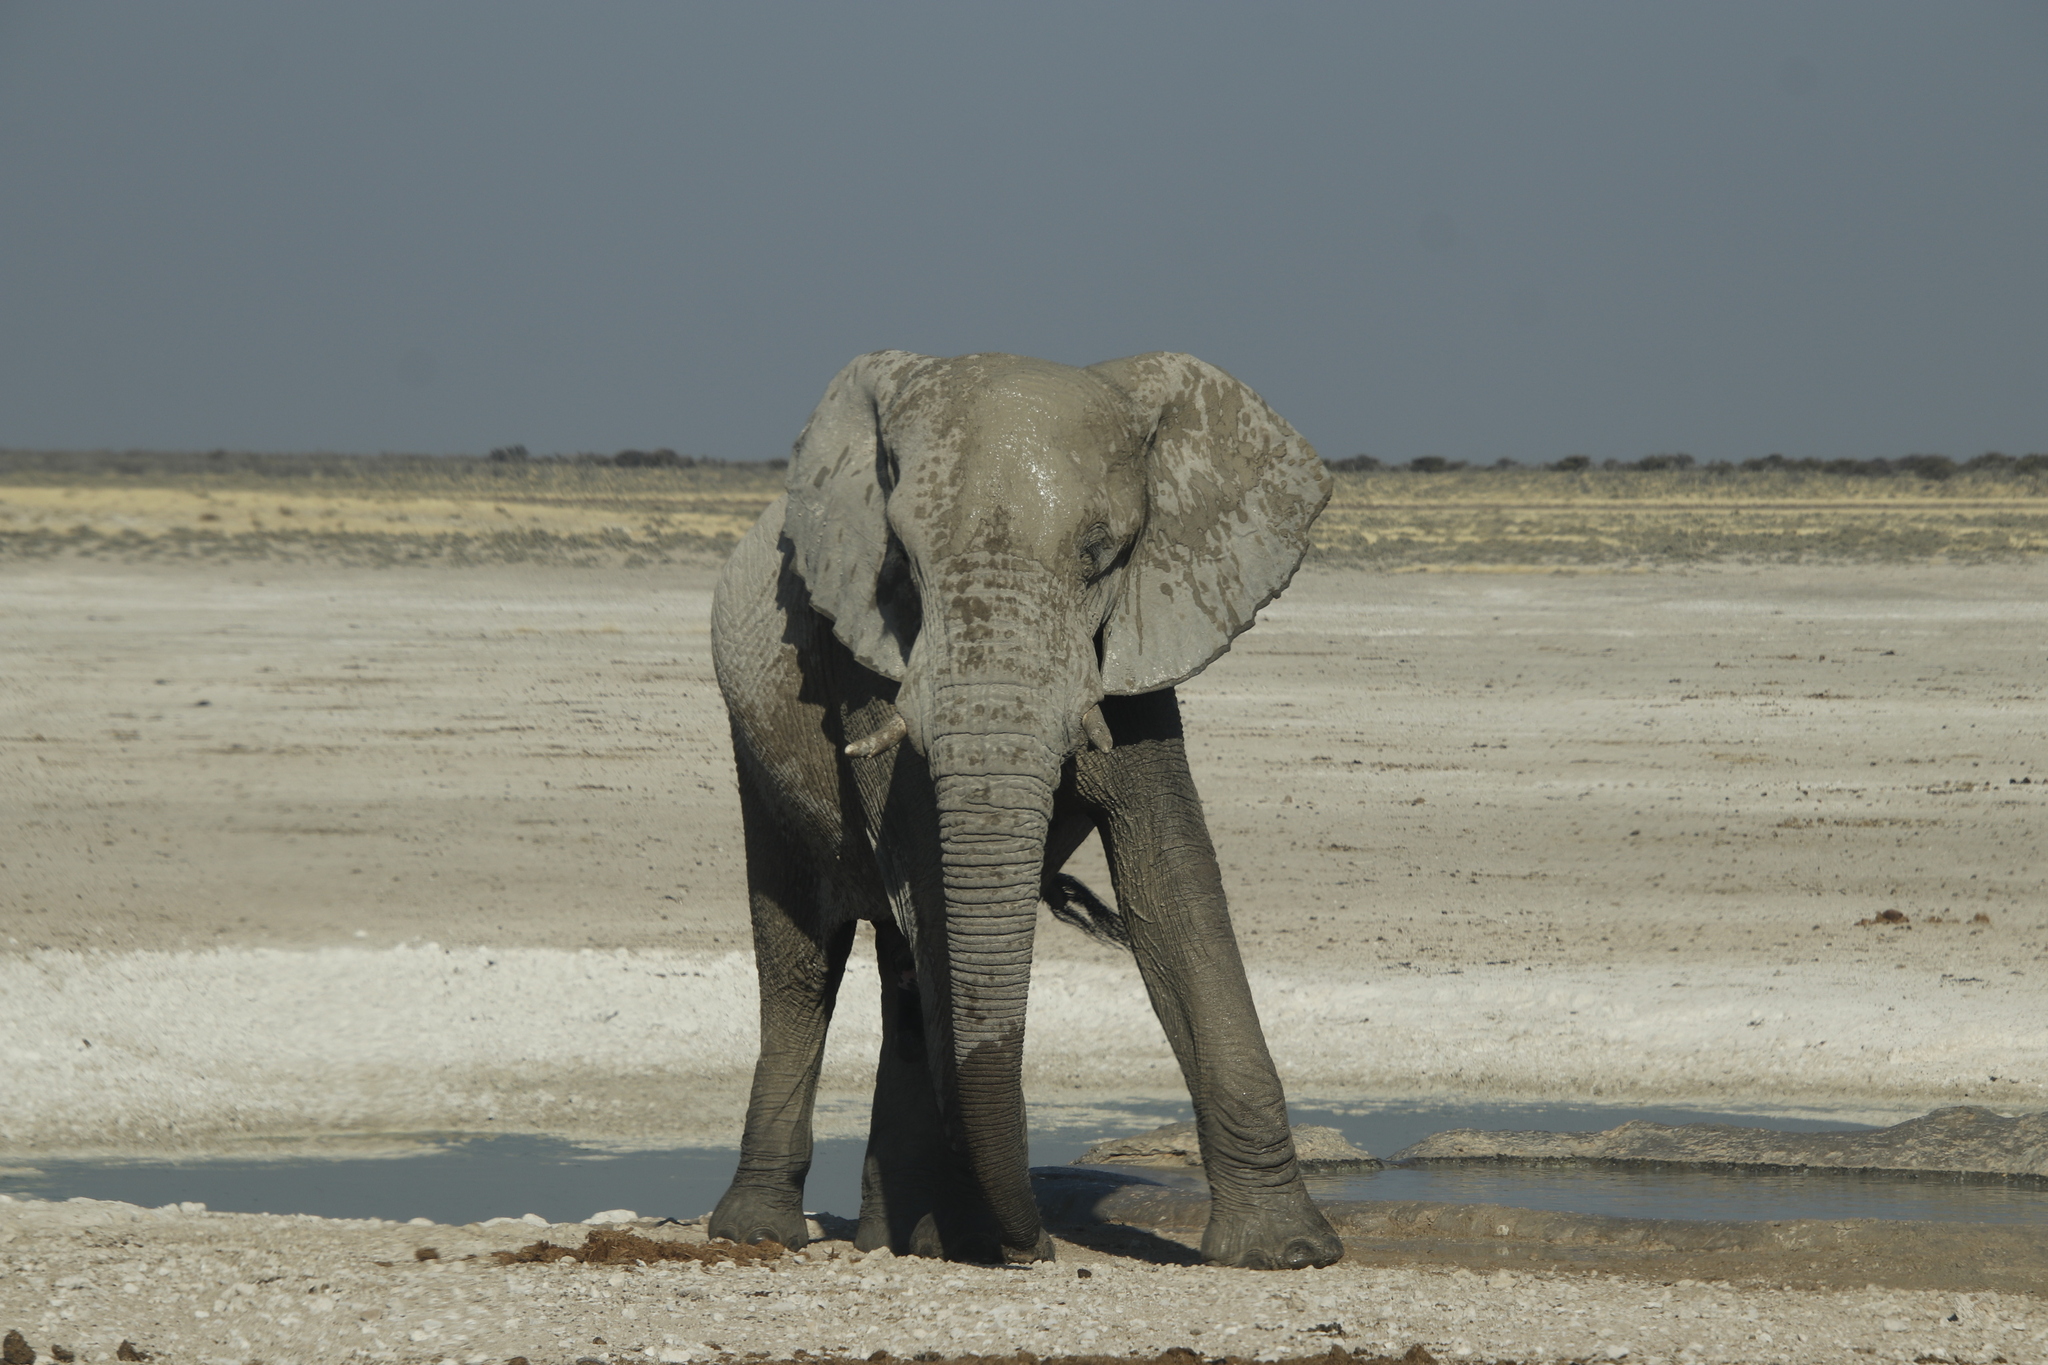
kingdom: Animalia
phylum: Chordata
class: Mammalia
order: Proboscidea
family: Elephantidae
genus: Loxodonta
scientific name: Loxodonta africana
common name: African elephant
